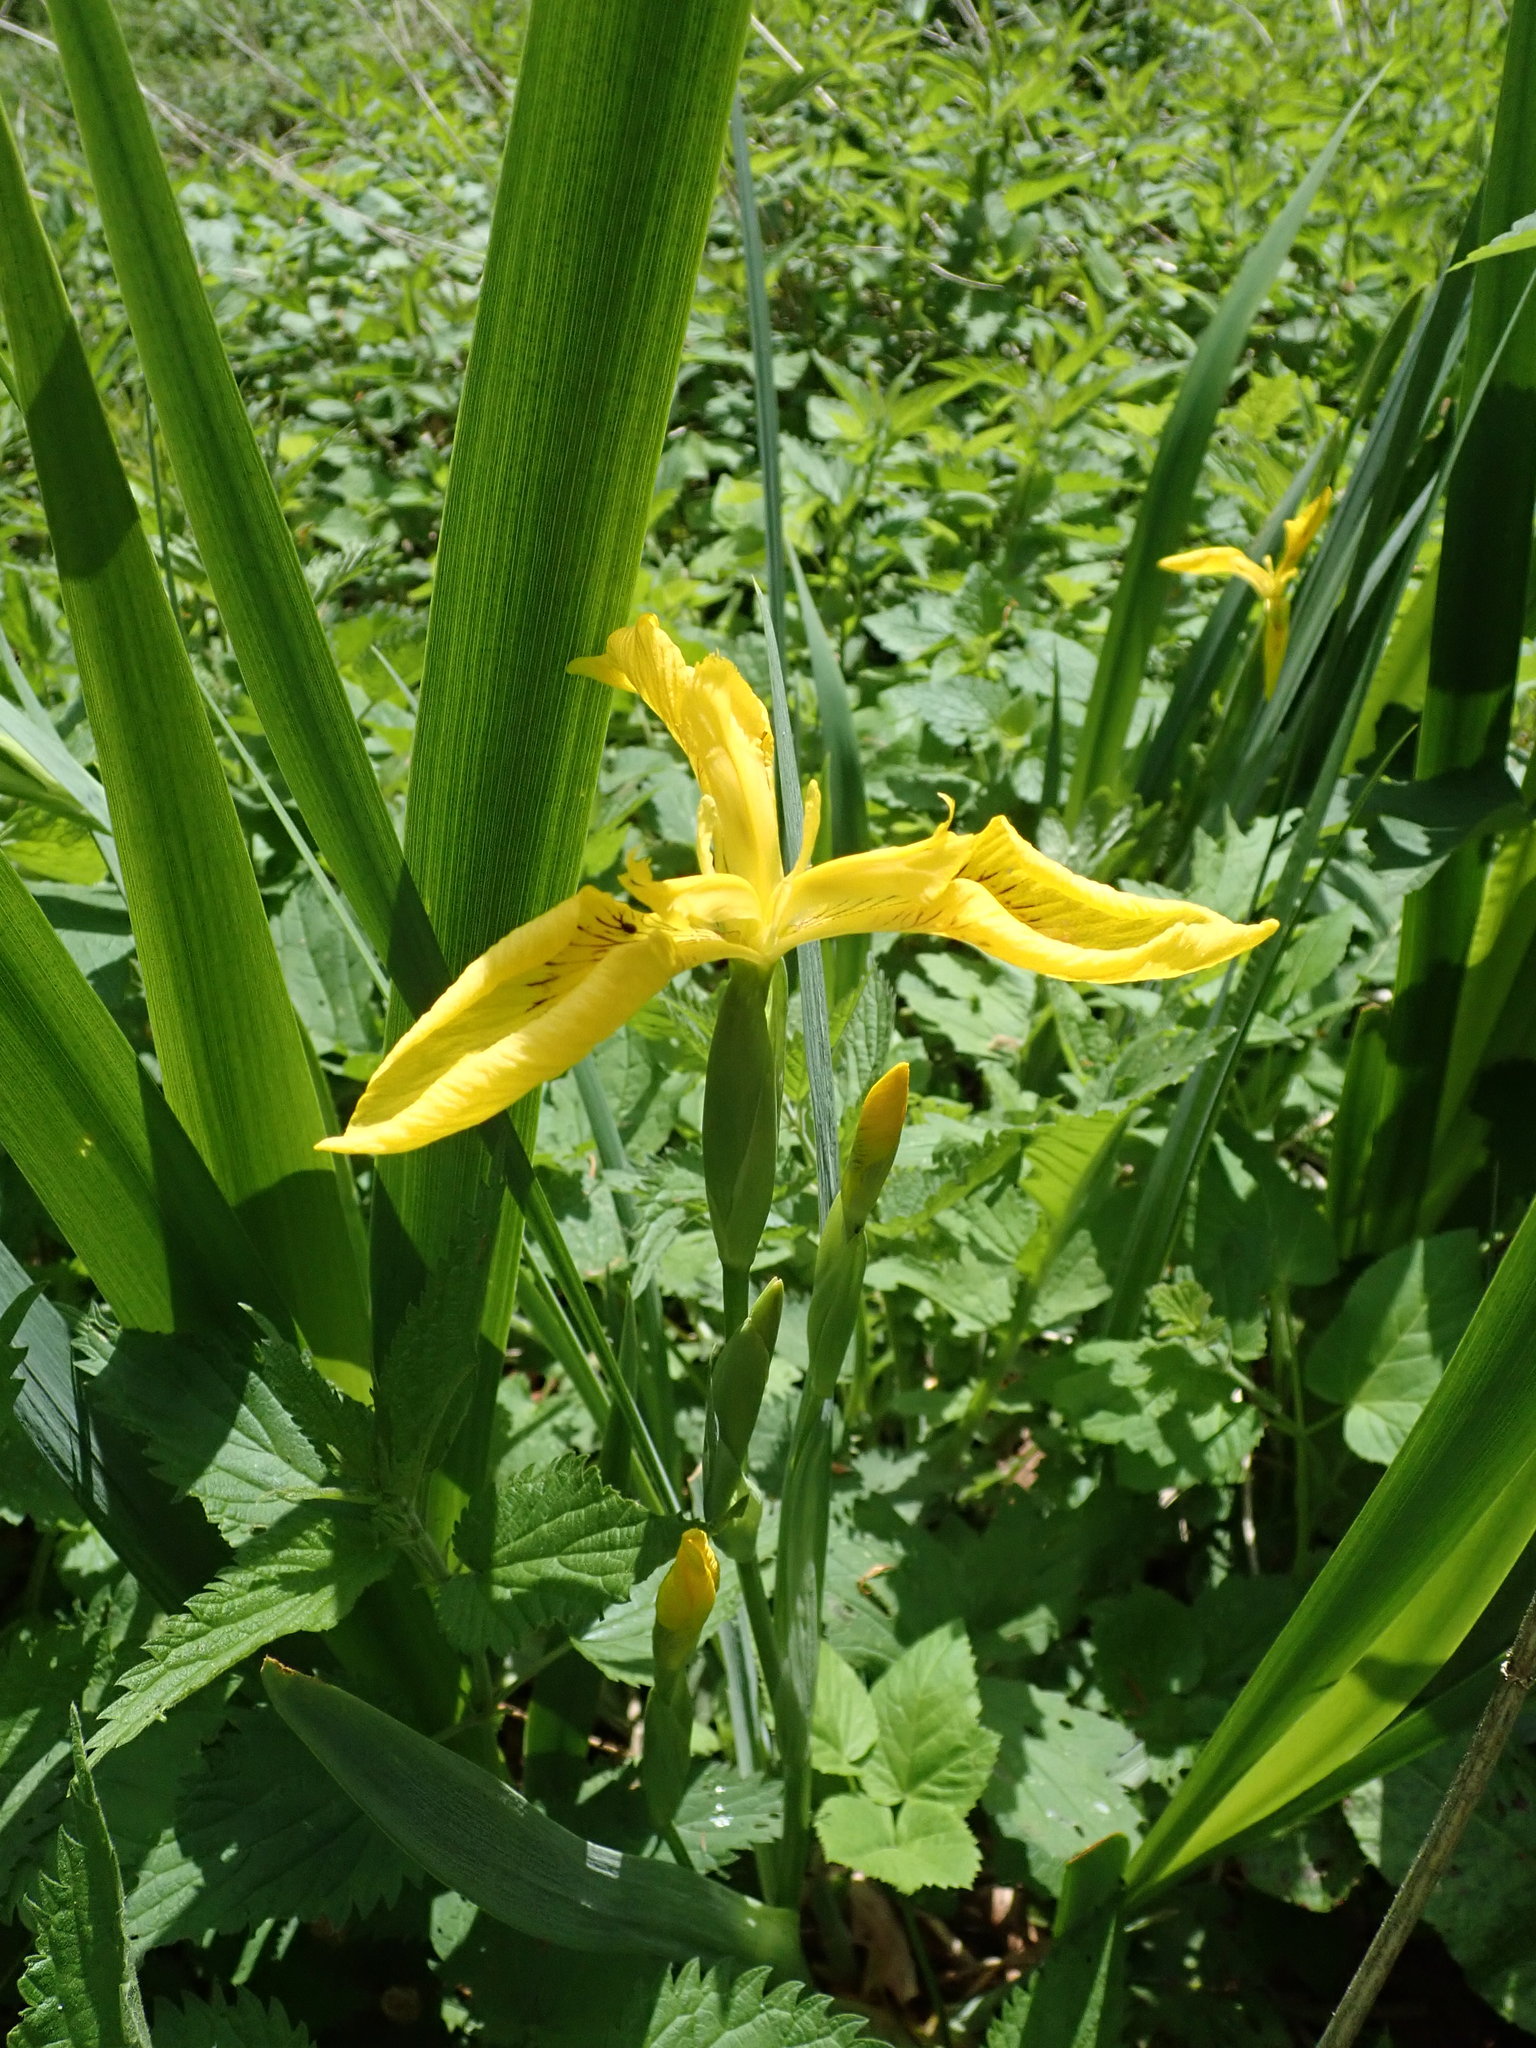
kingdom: Plantae
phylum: Tracheophyta
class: Liliopsida
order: Asparagales
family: Iridaceae
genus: Iris
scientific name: Iris pseudacorus
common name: Yellow flag
